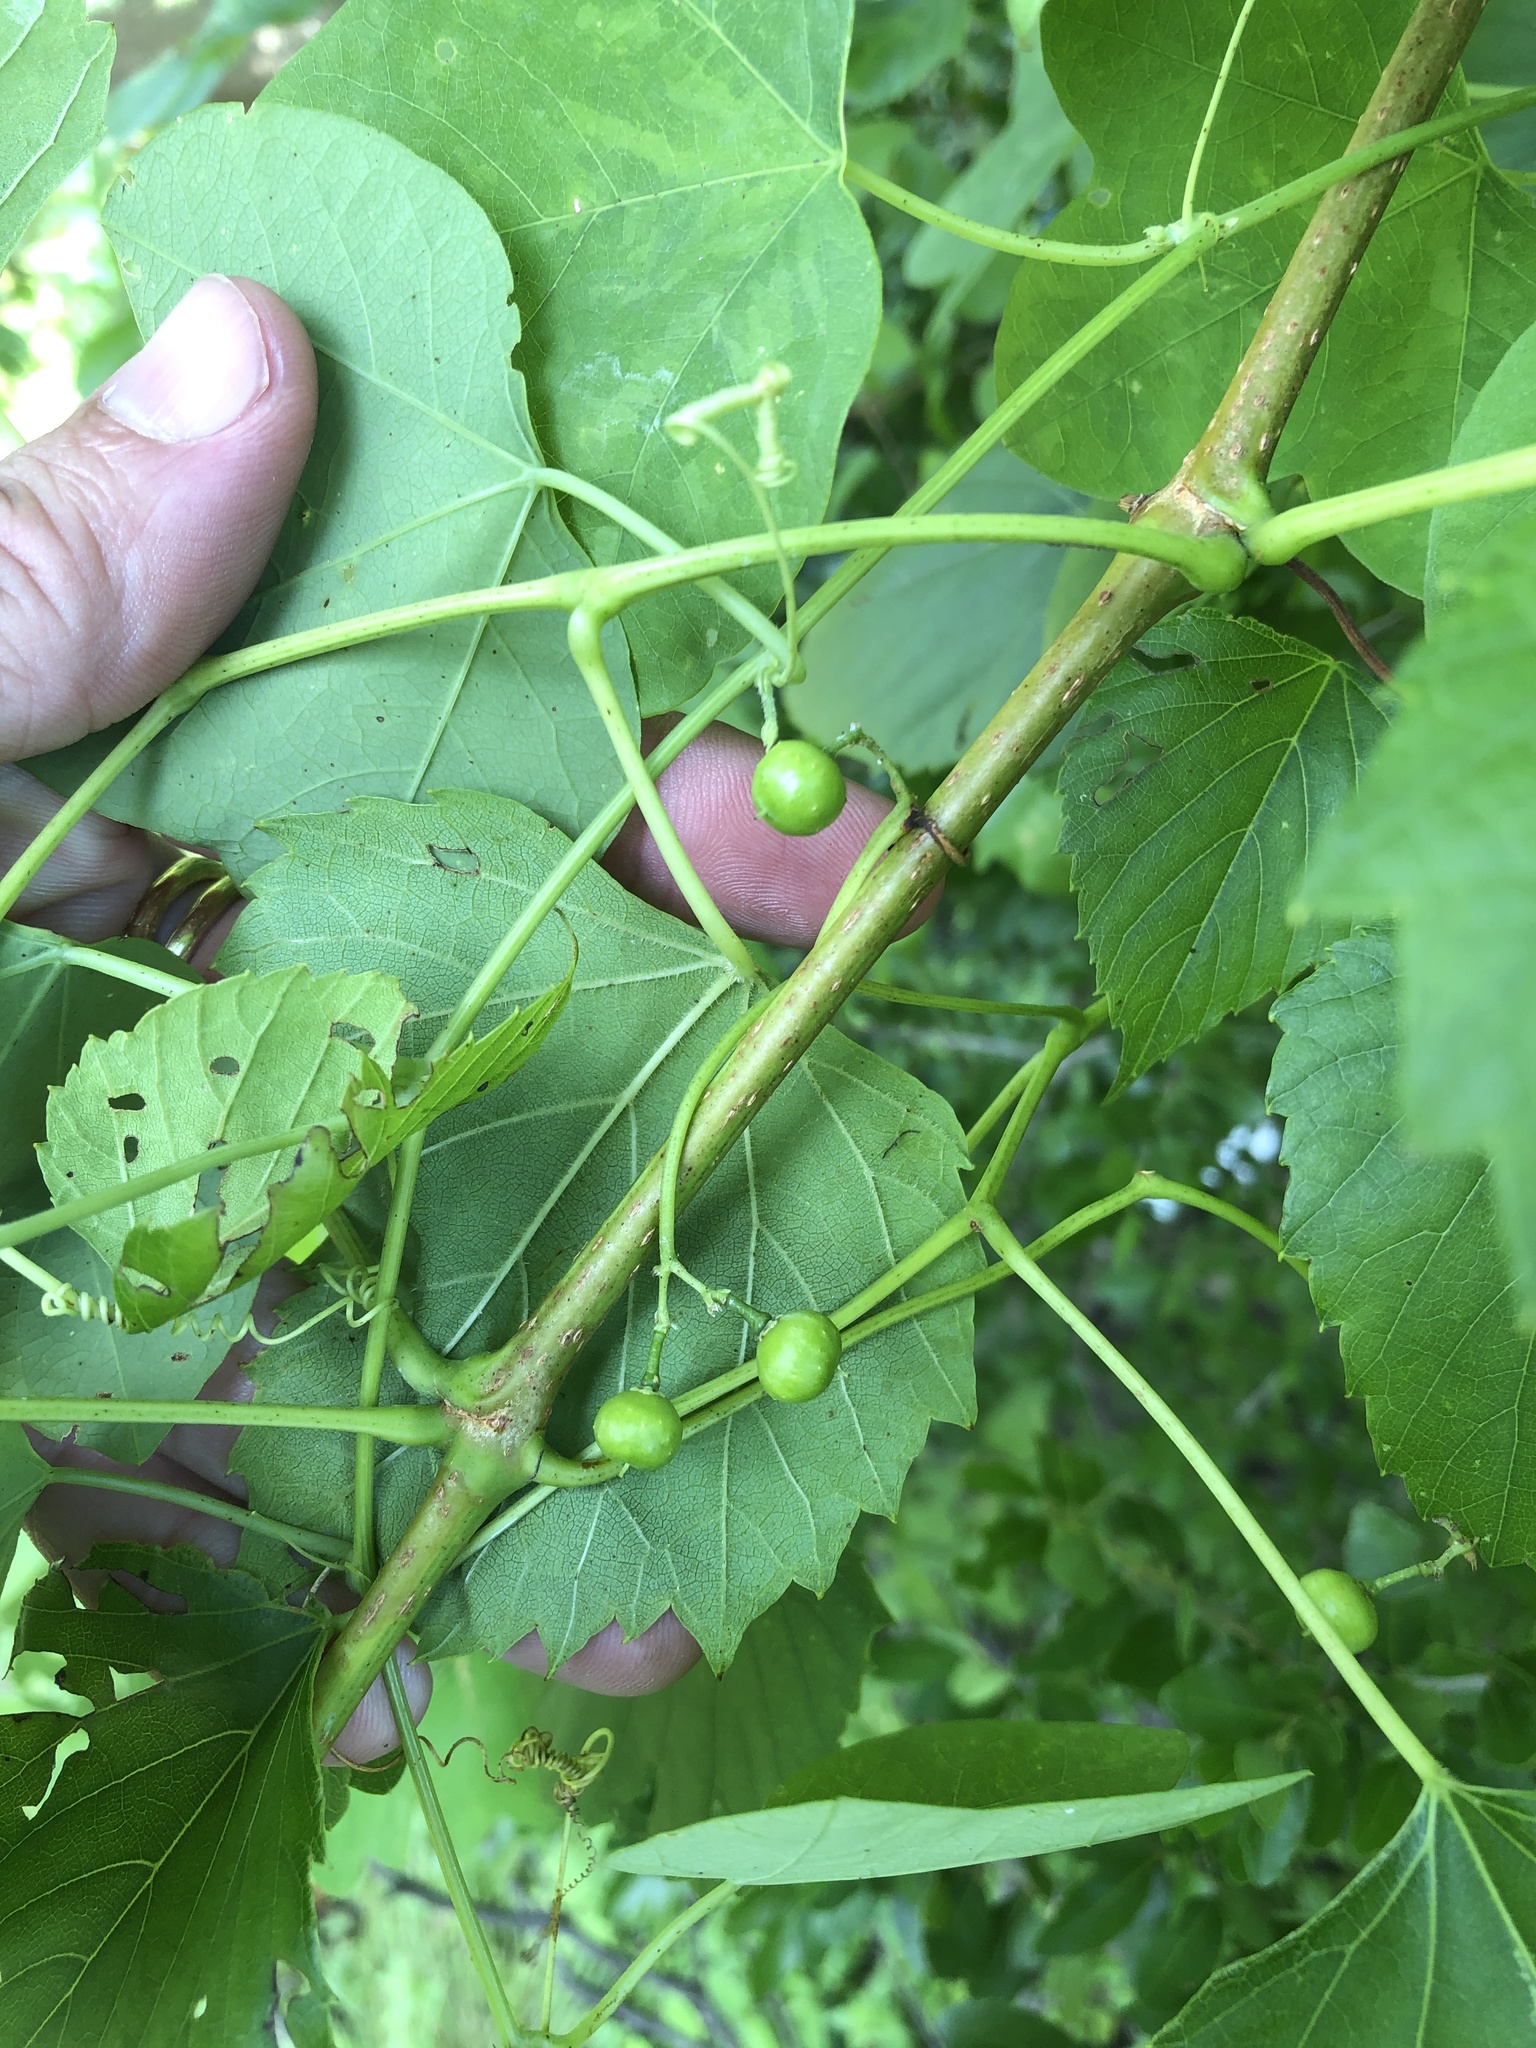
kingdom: Plantae
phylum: Tracheophyta
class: Magnoliopsida
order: Vitales
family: Vitaceae
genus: Ampelopsis
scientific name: Ampelopsis cordata
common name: Heart-leaf ampelopsis
